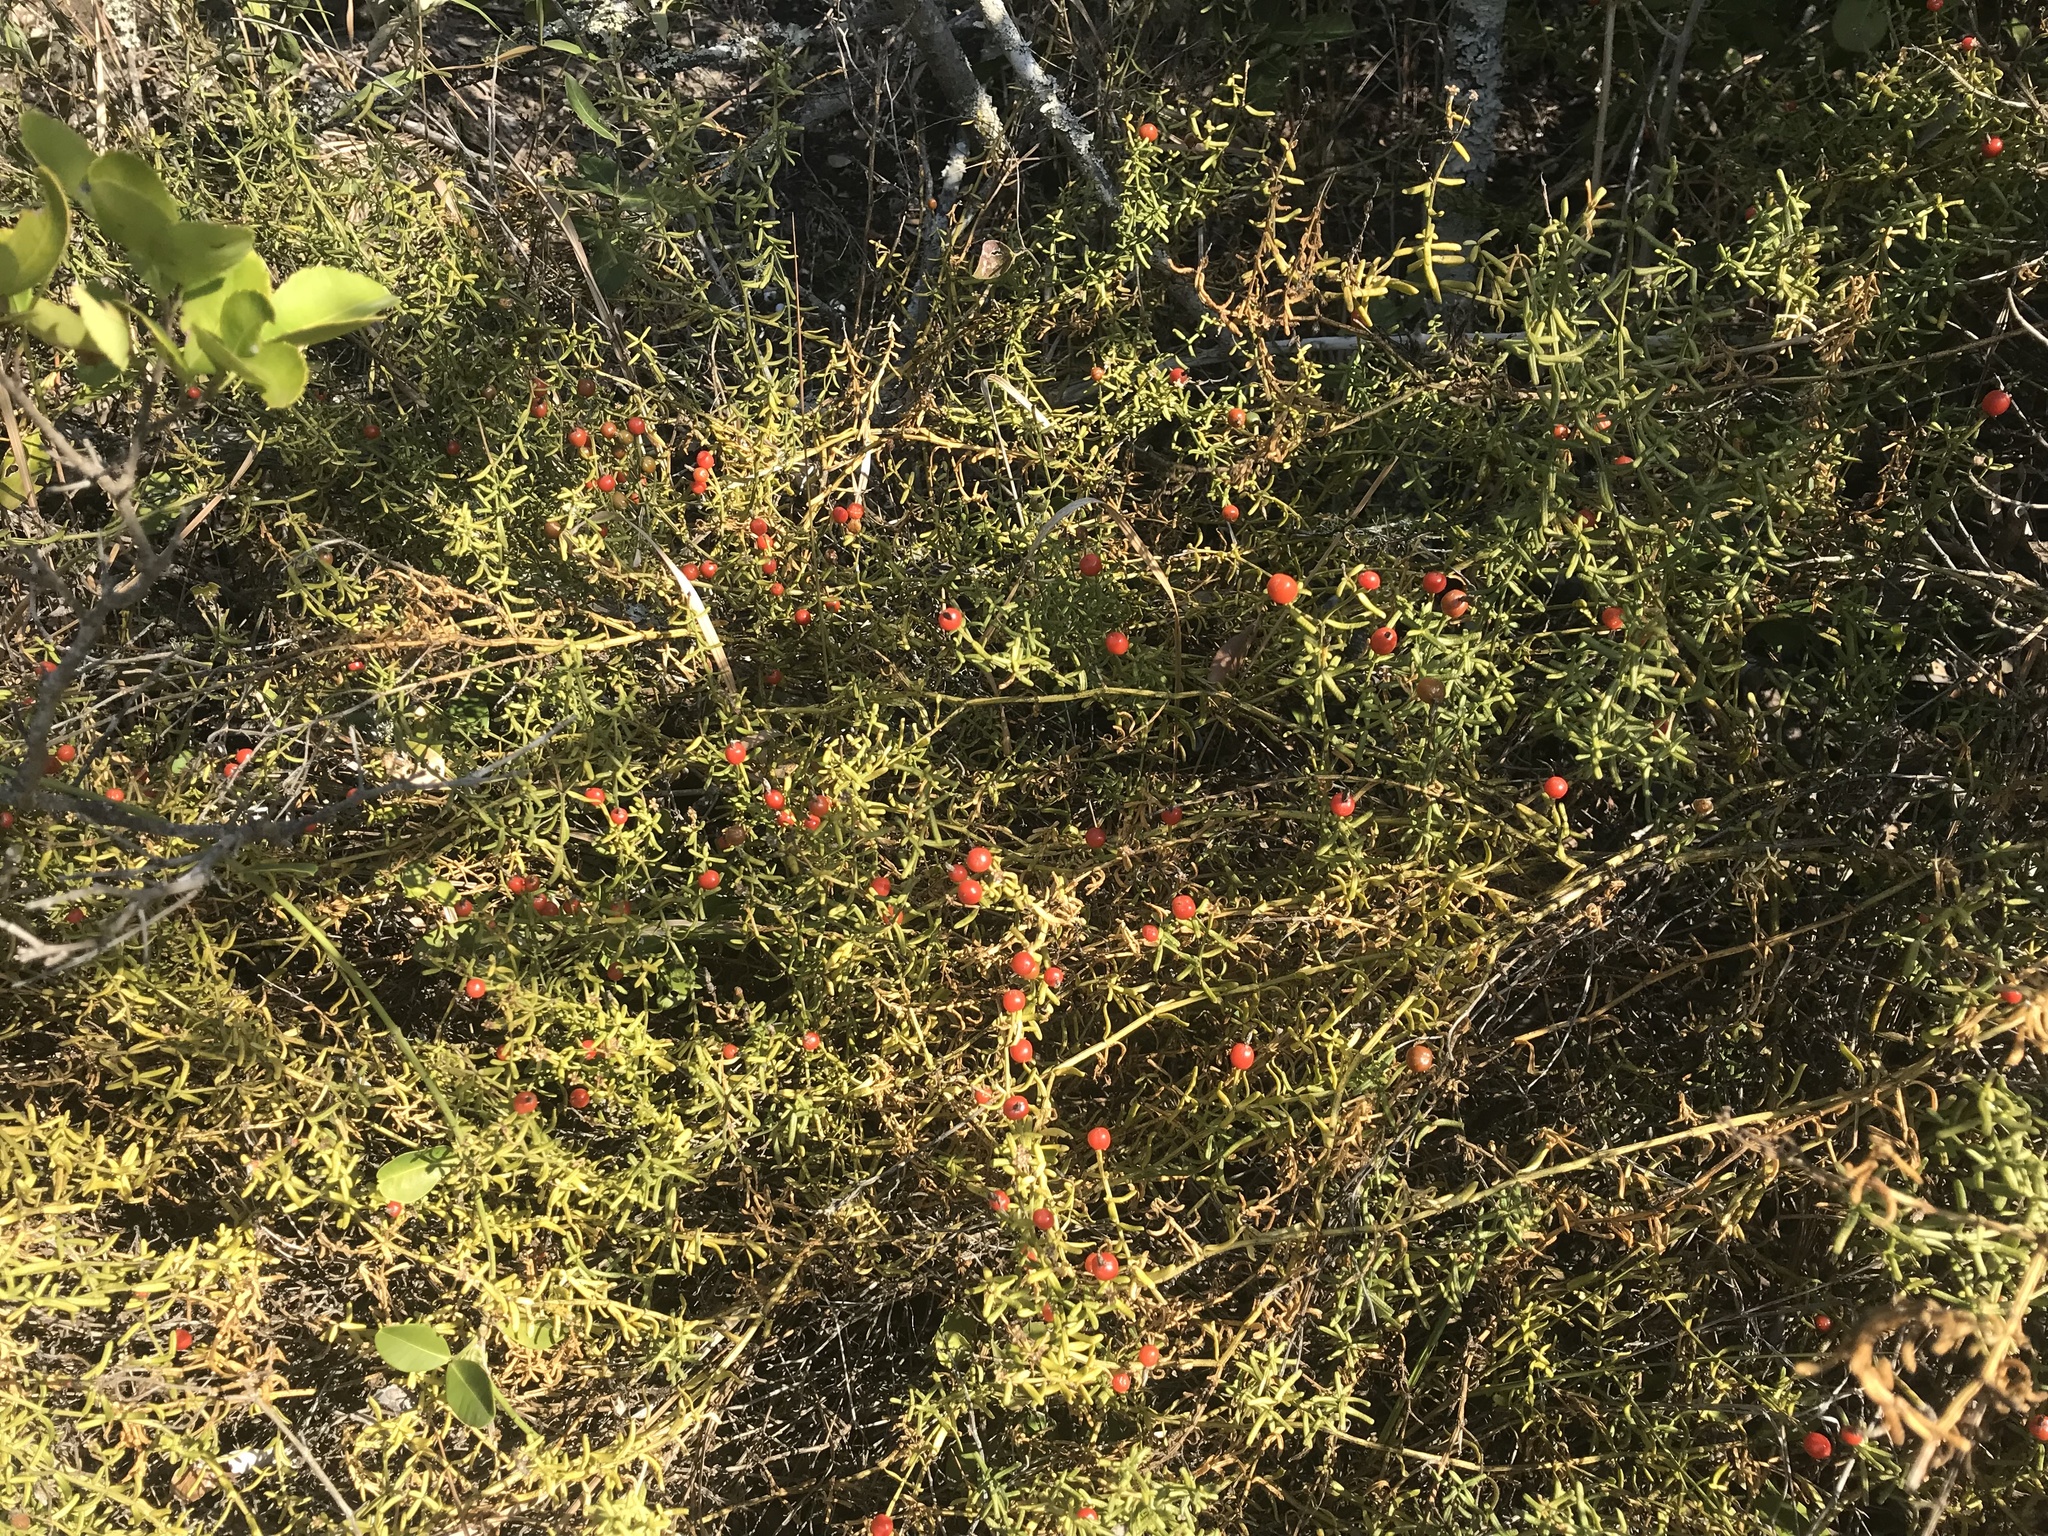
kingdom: Plantae
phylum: Tracheophyta
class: Magnoliopsida
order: Gentianales
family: Gentianaceae
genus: Chironia
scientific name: Chironia baccifera
